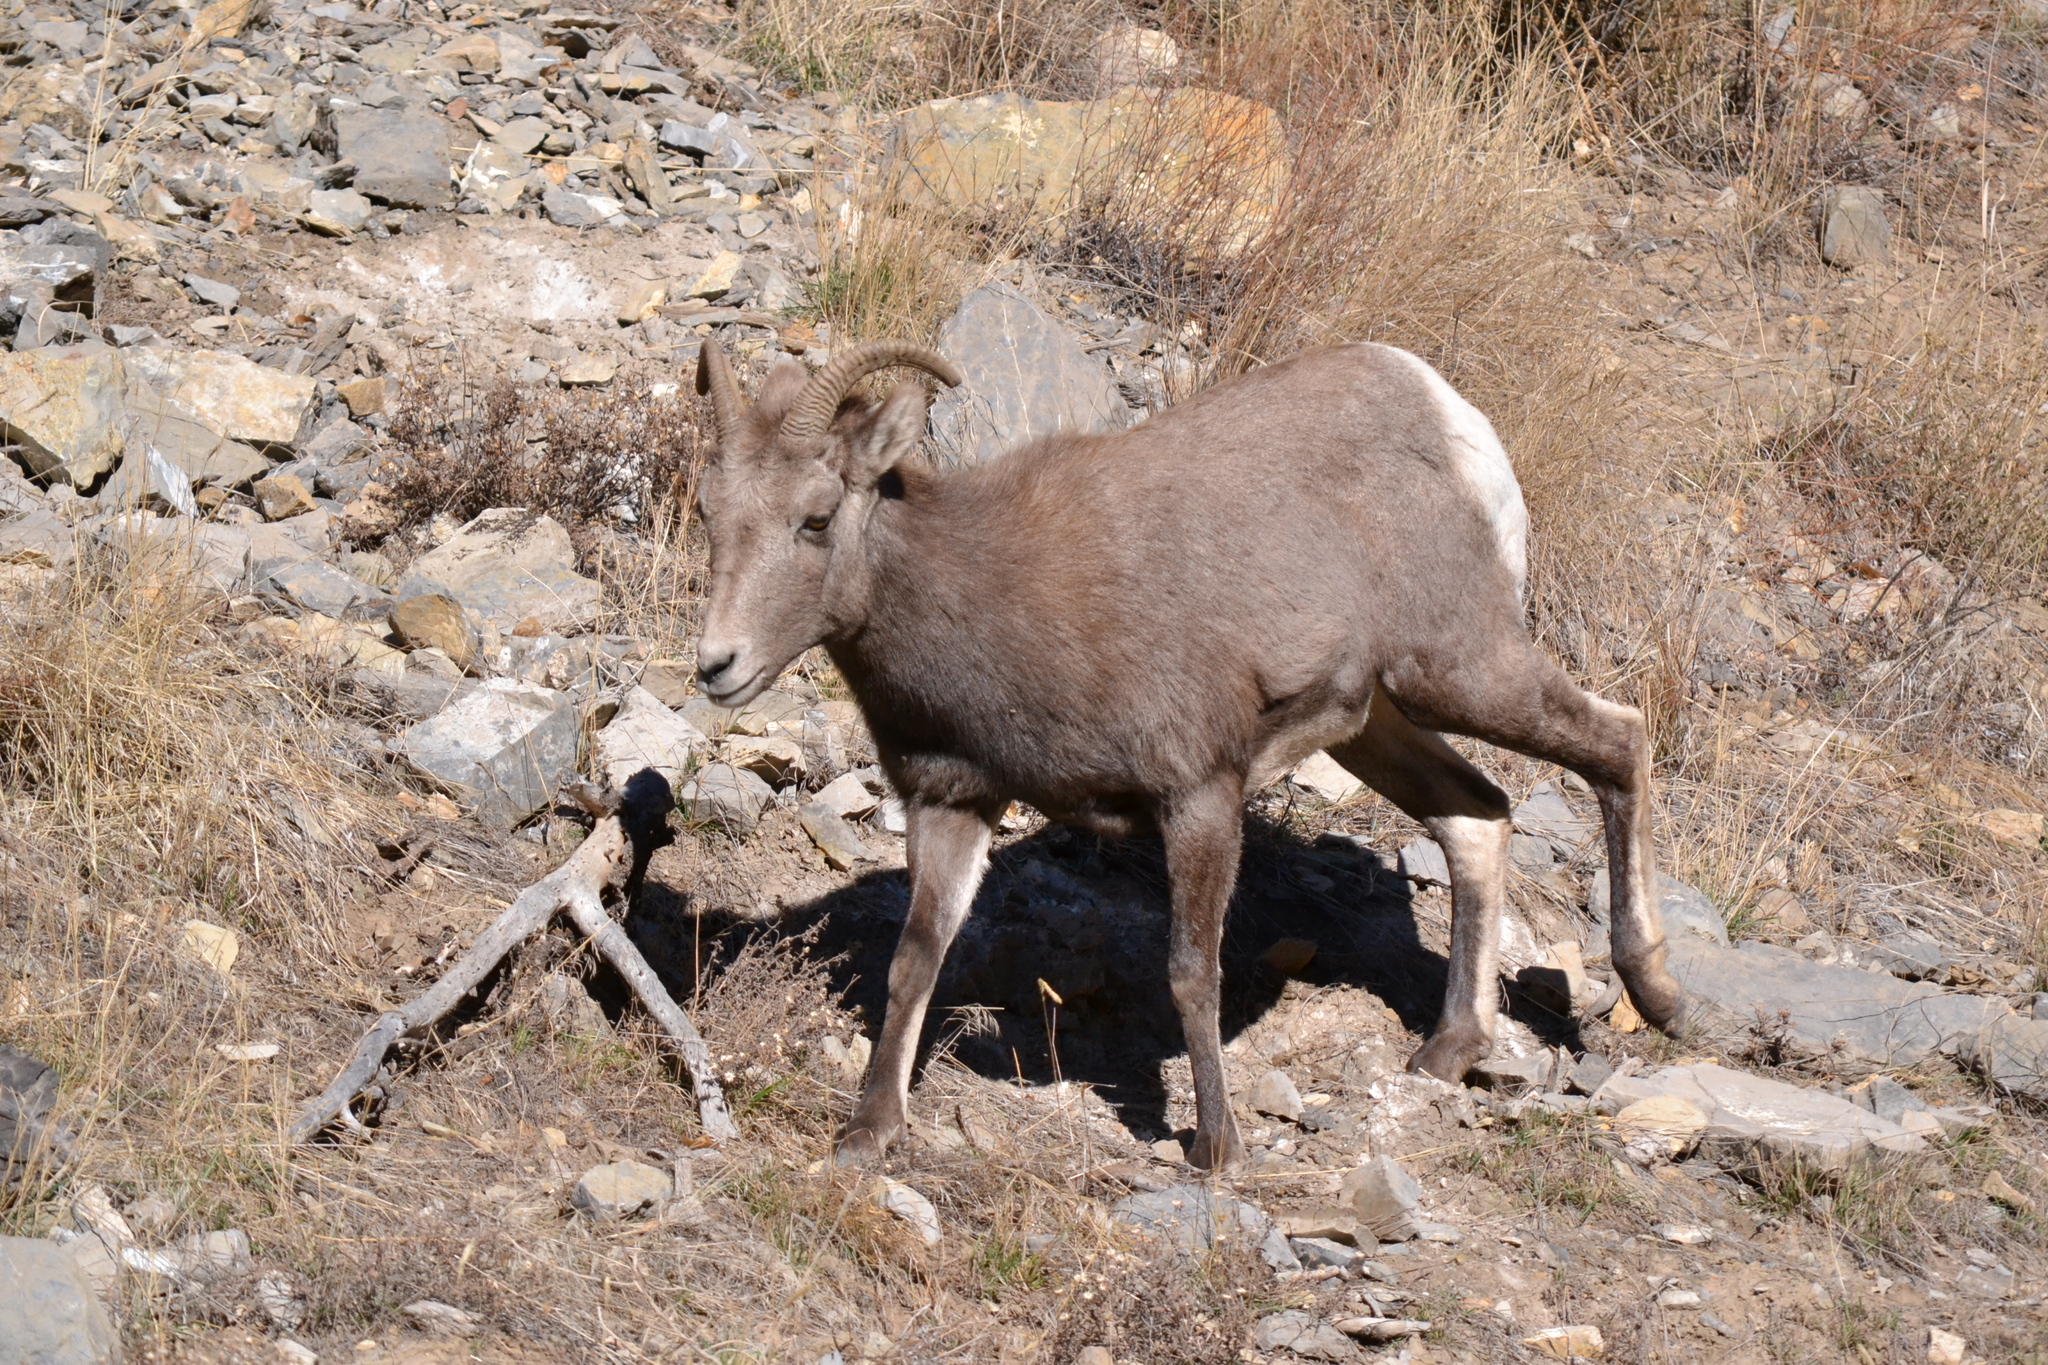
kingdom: Animalia
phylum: Chordata
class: Mammalia
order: Artiodactyla
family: Bovidae
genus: Ovis
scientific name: Ovis canadensis
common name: Bighorn sheep
